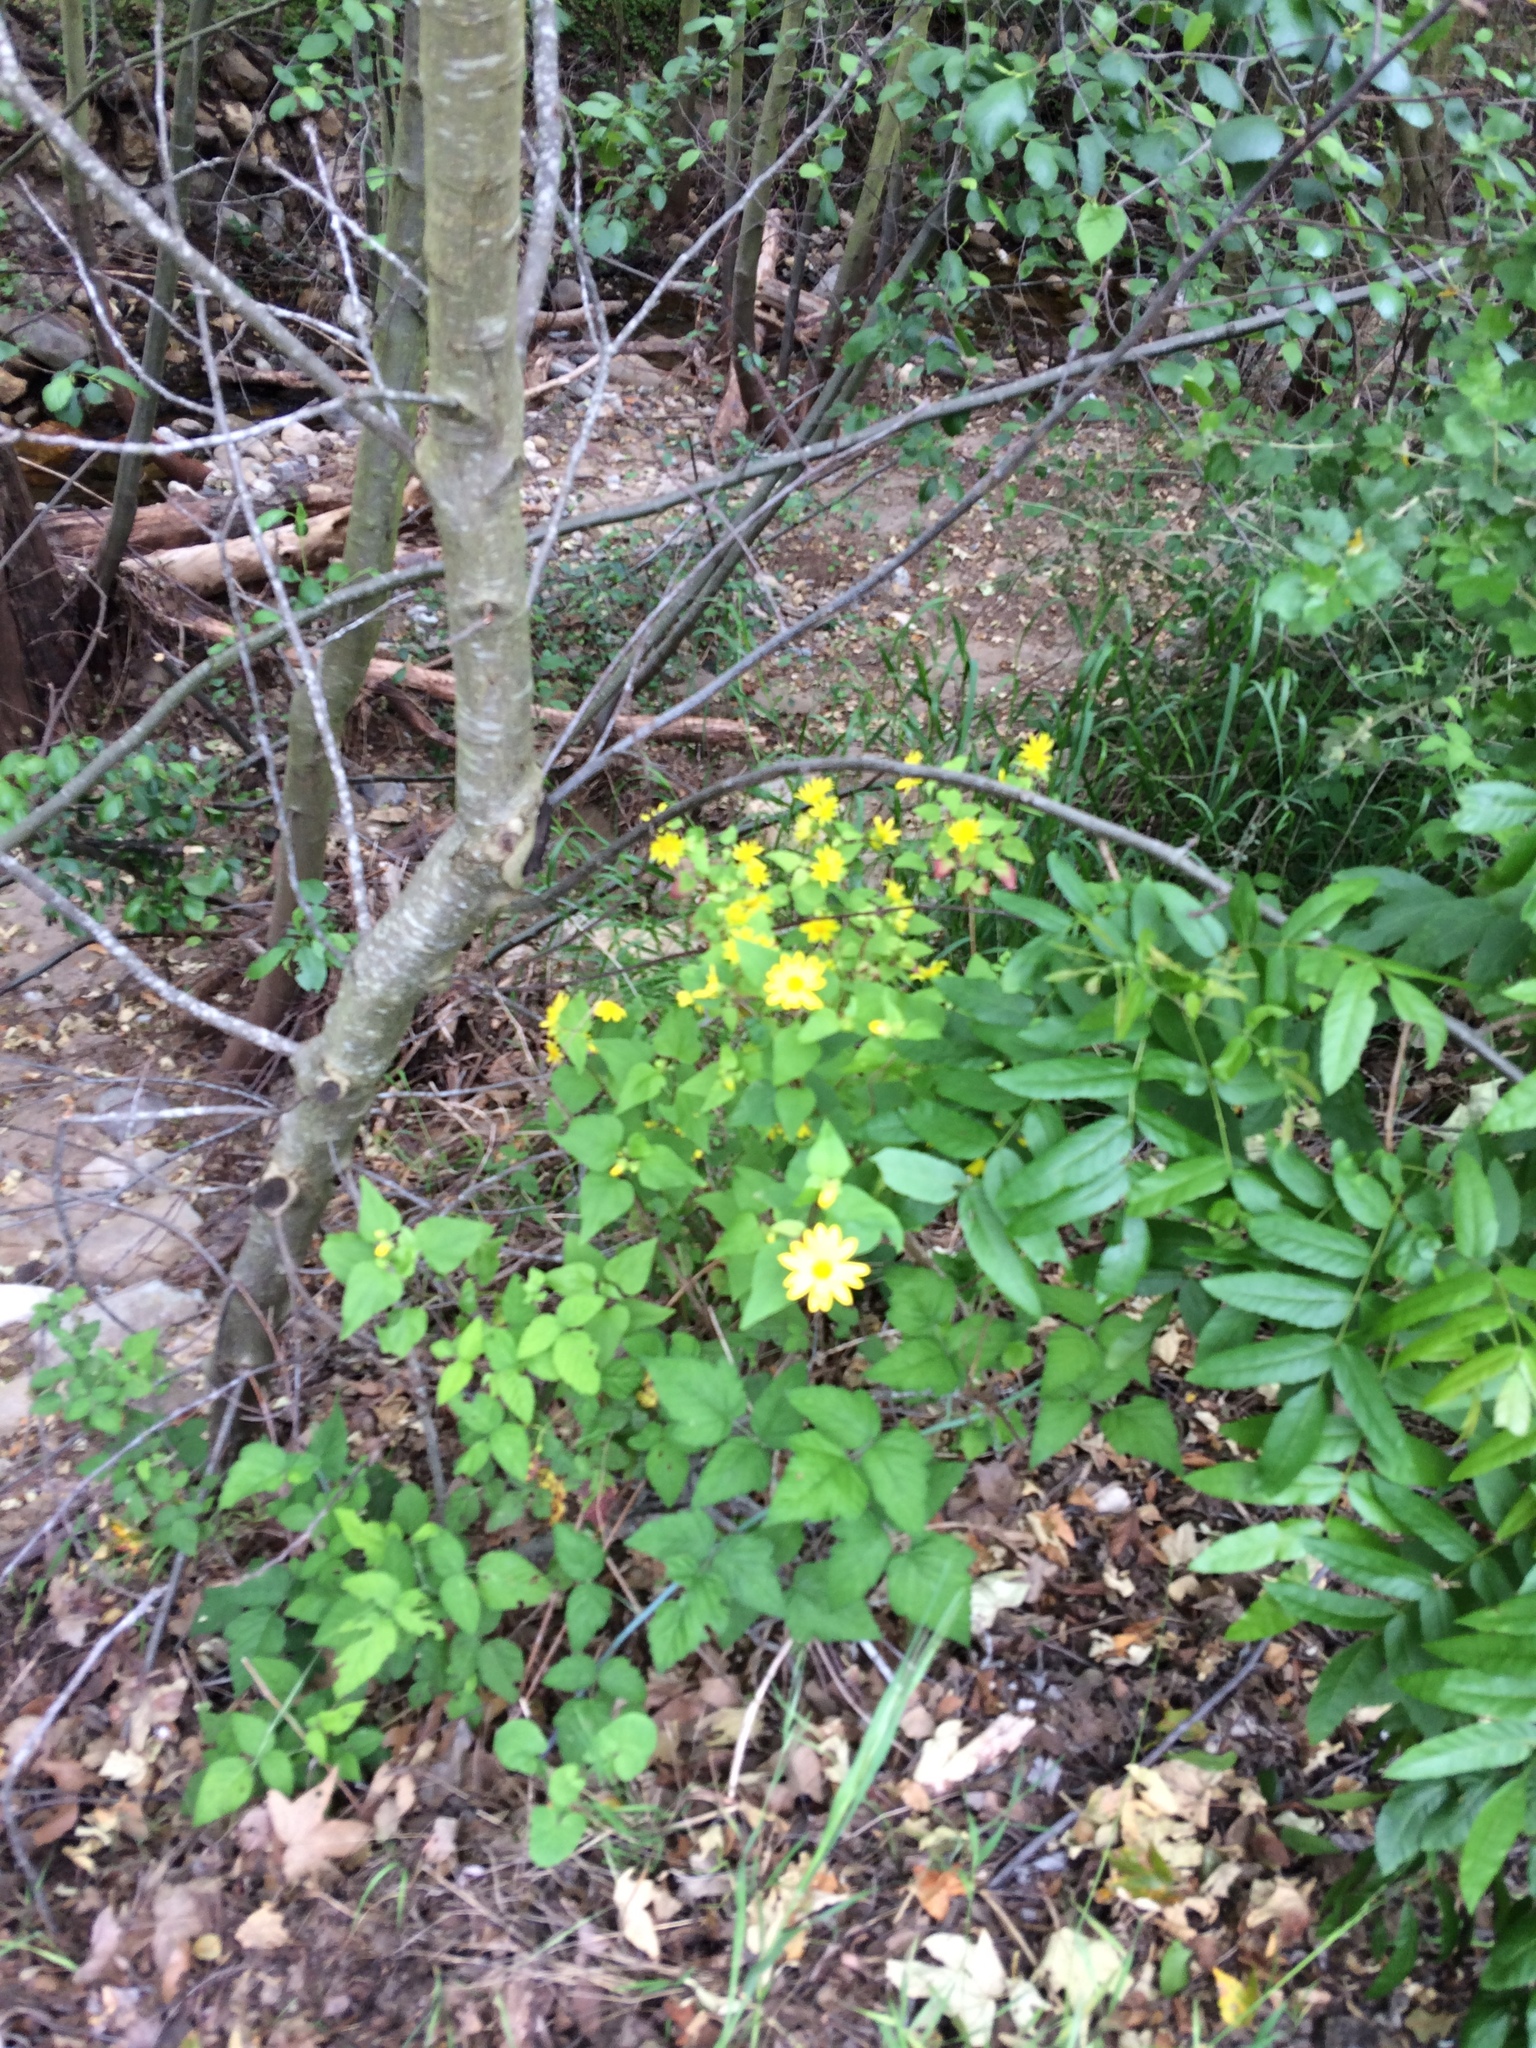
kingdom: Plantae
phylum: Tracheophyta
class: Magnoliopsida
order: Asterales
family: Asteraceae
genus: Venegasia
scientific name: Venegasia carpesioides
